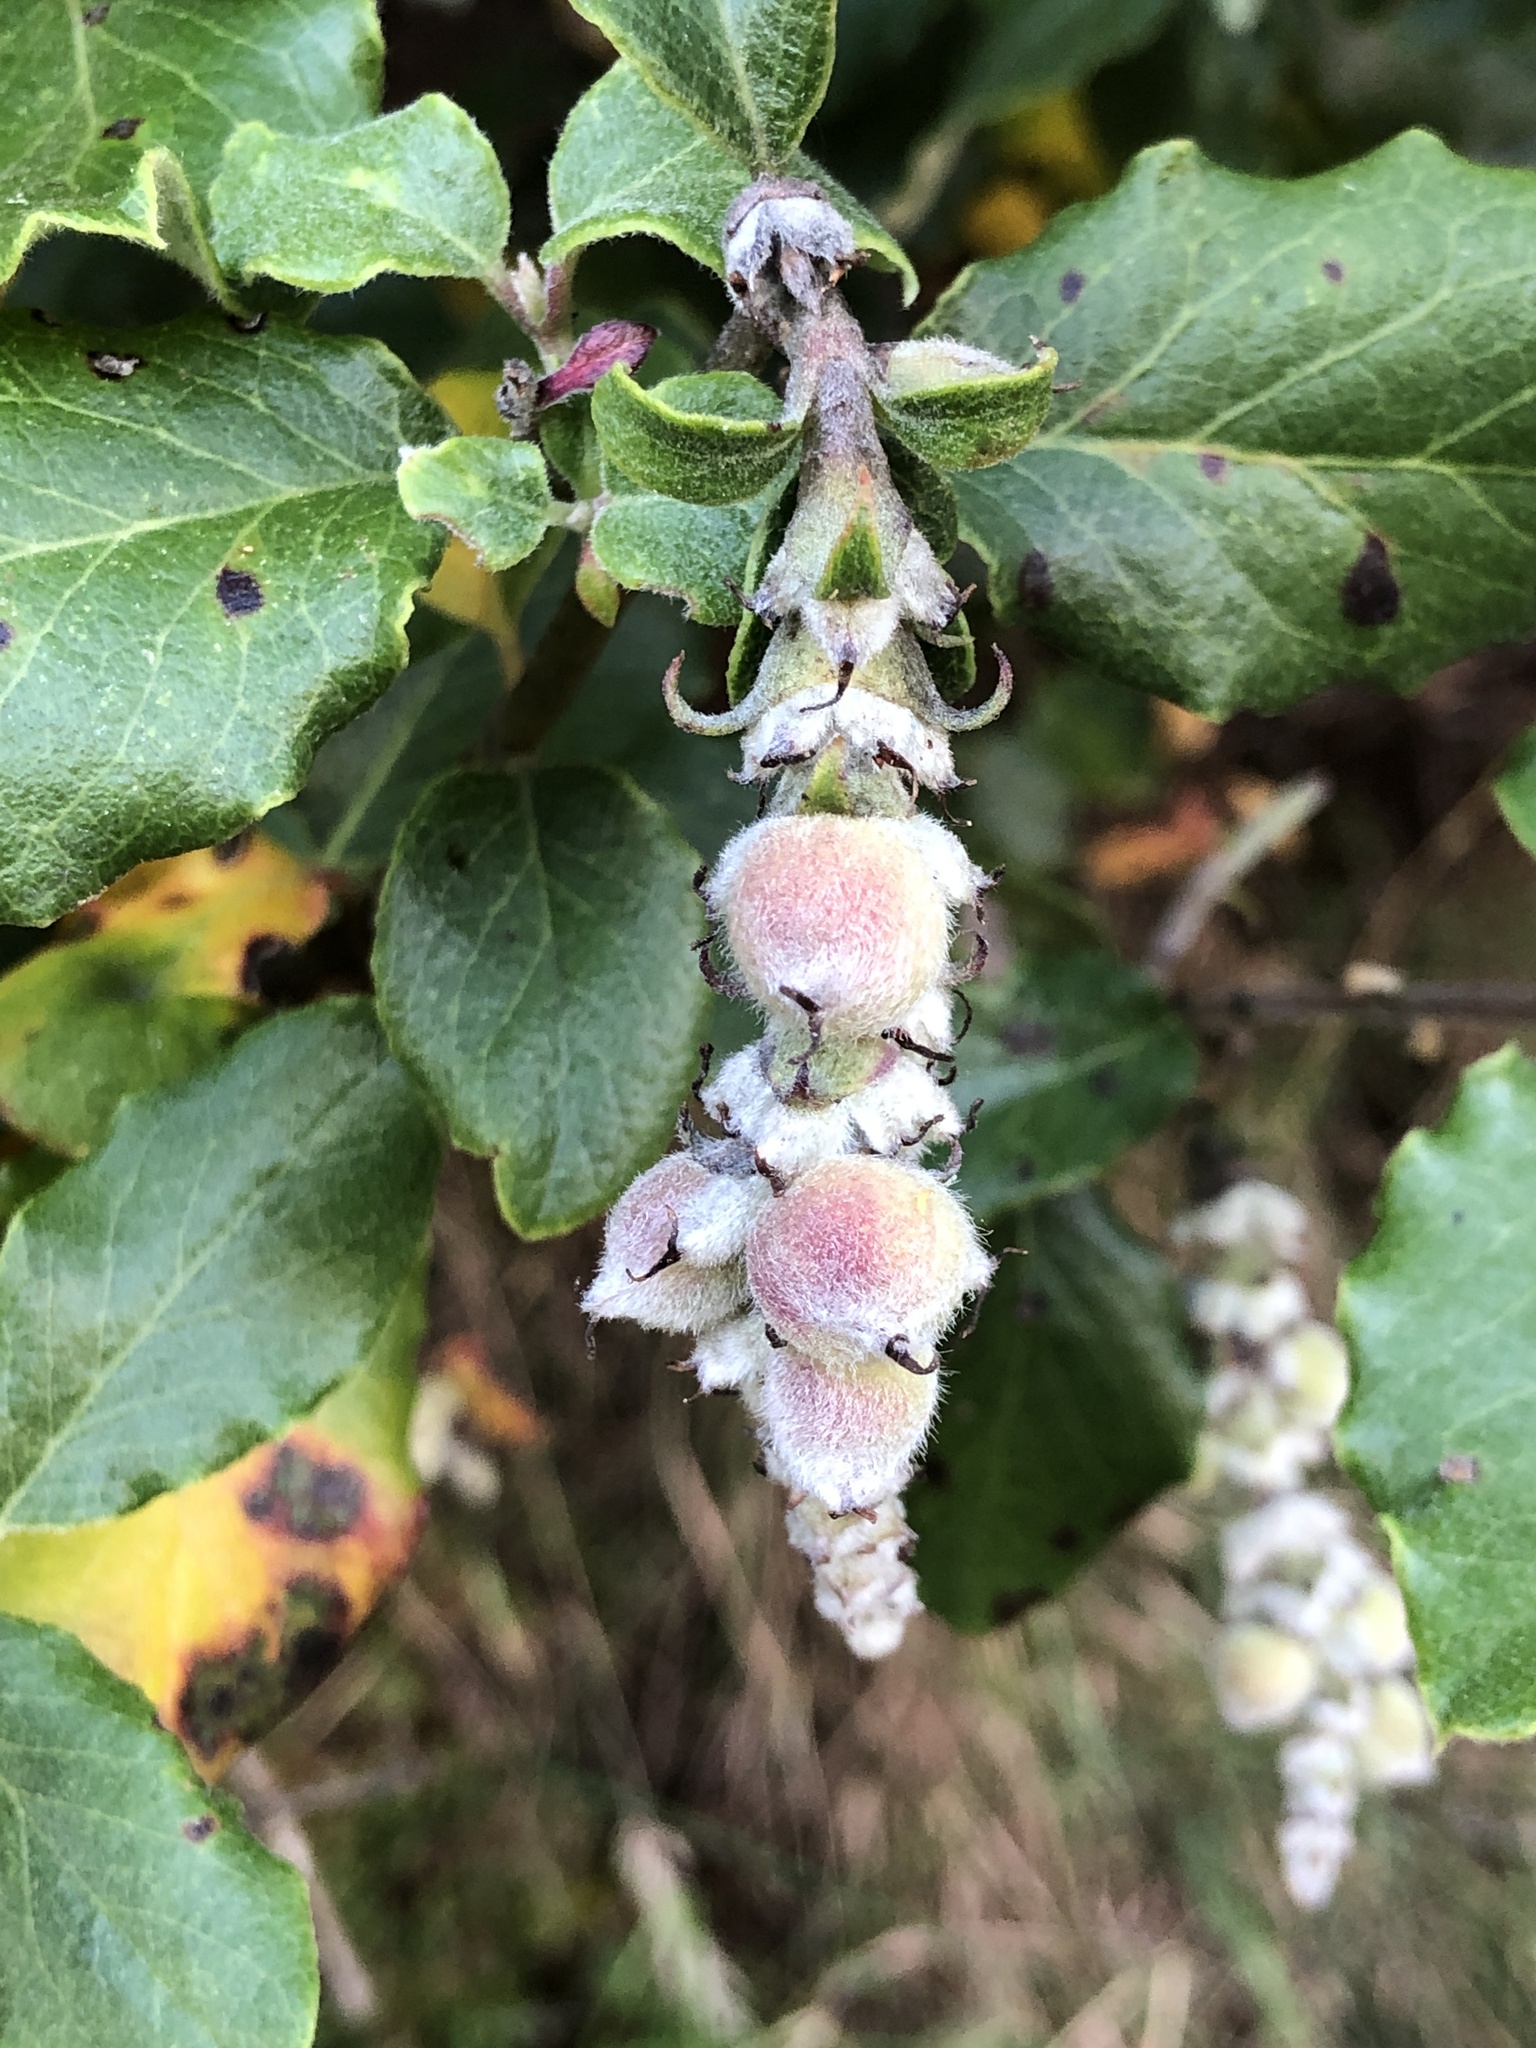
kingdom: Plantae
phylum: Tracheophyta
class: Magnoliopsida
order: Garryales
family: Garryaceae
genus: Garrya
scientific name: Garrya elliptica
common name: Silk-tassel
